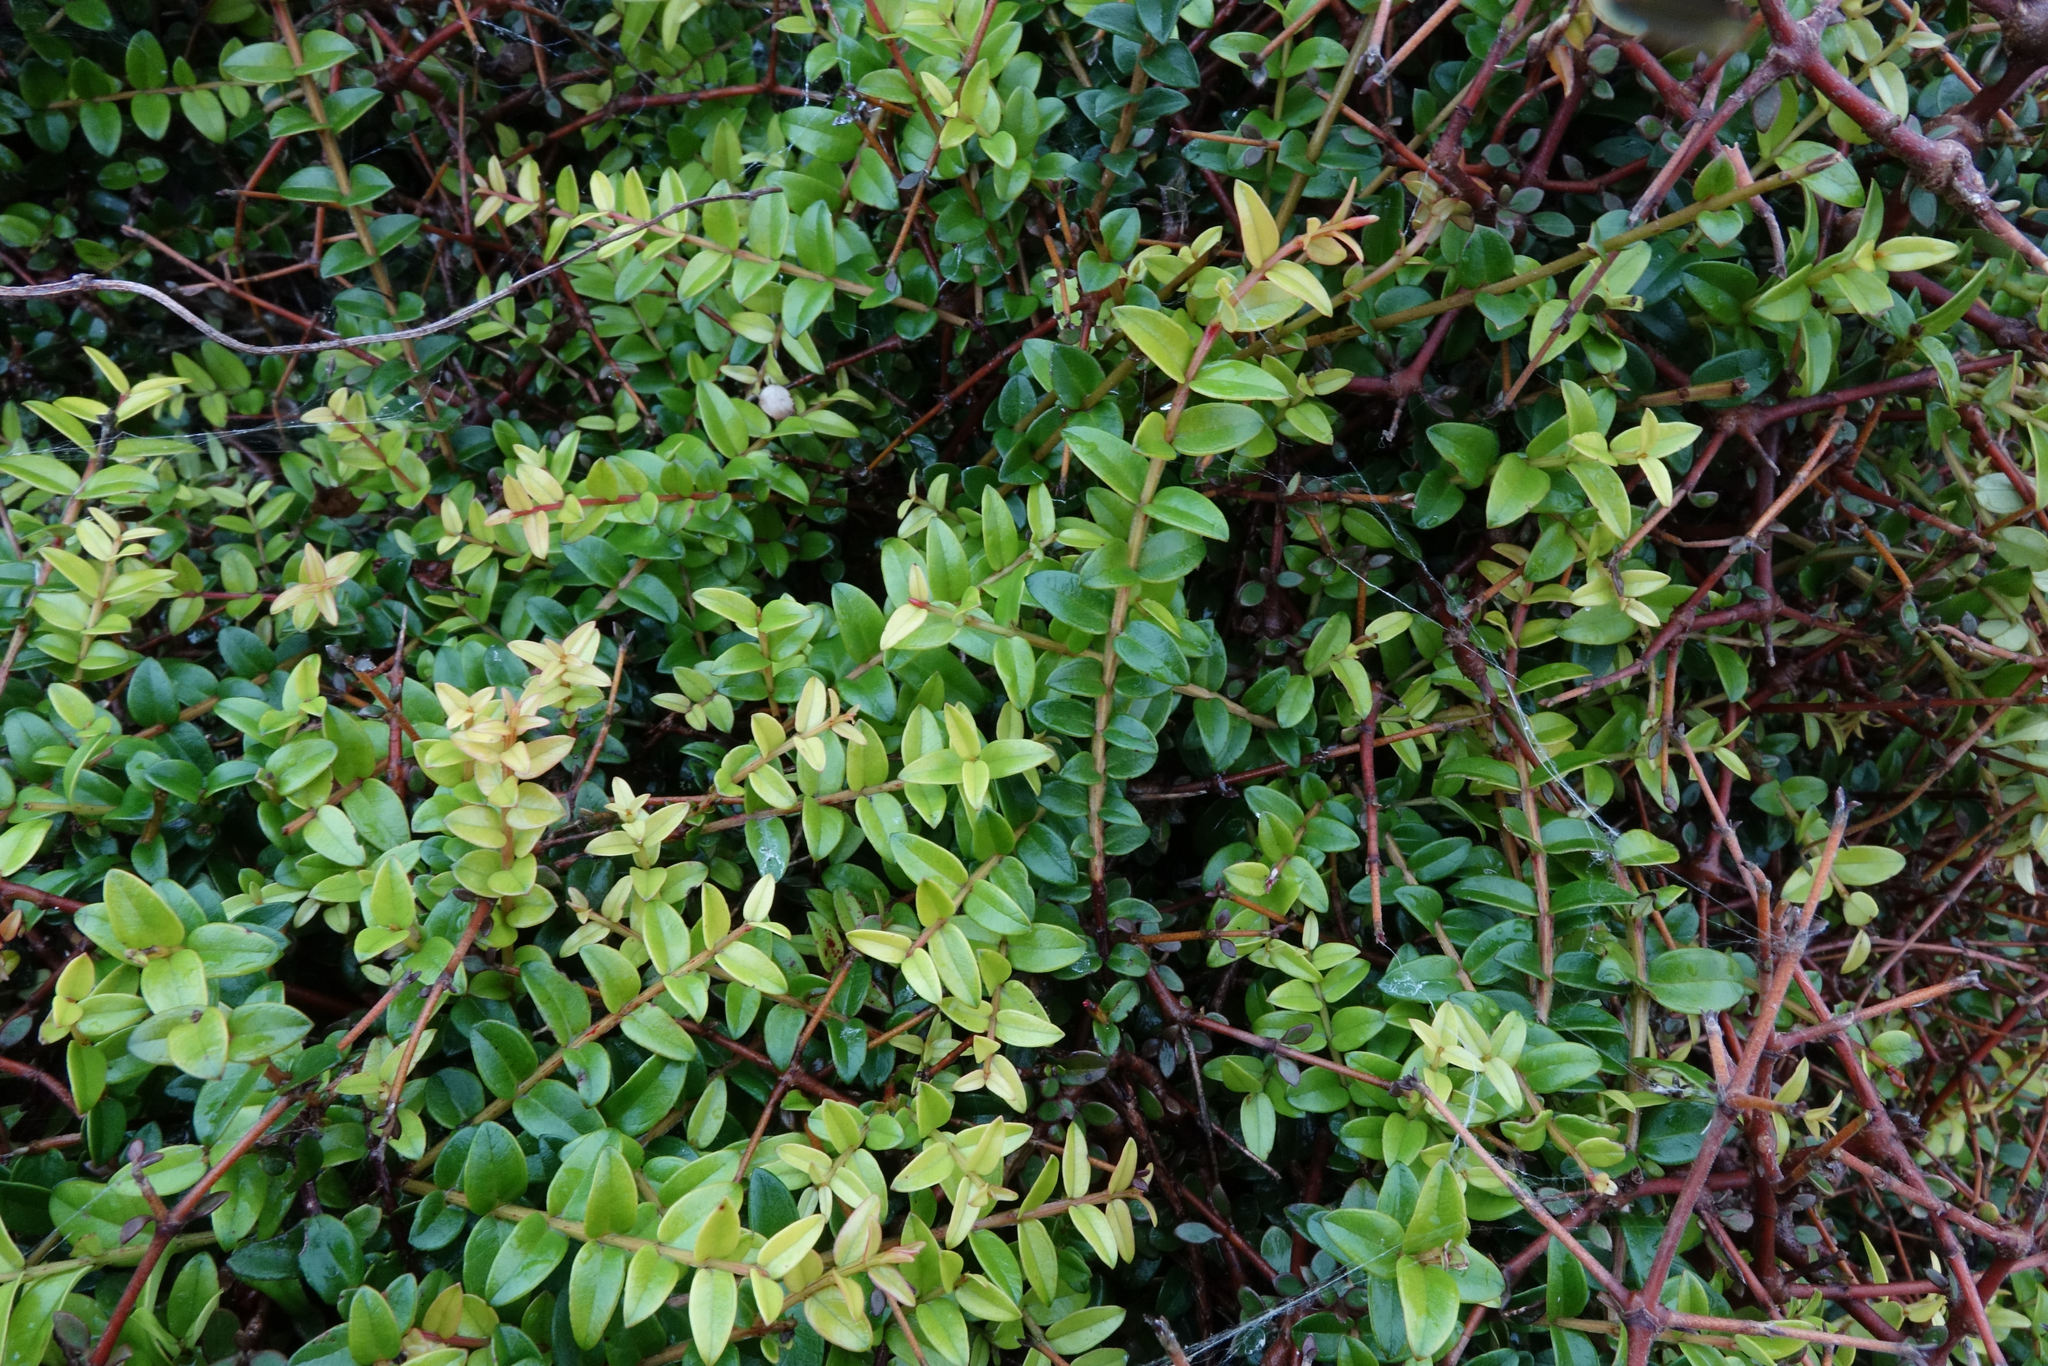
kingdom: Plantae
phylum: Tracheophyta
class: Magnoliopsida
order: Myrtales
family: Myrtaceae
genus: Metrosideros
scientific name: Metrosideros diffusa
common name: Small ratavine
